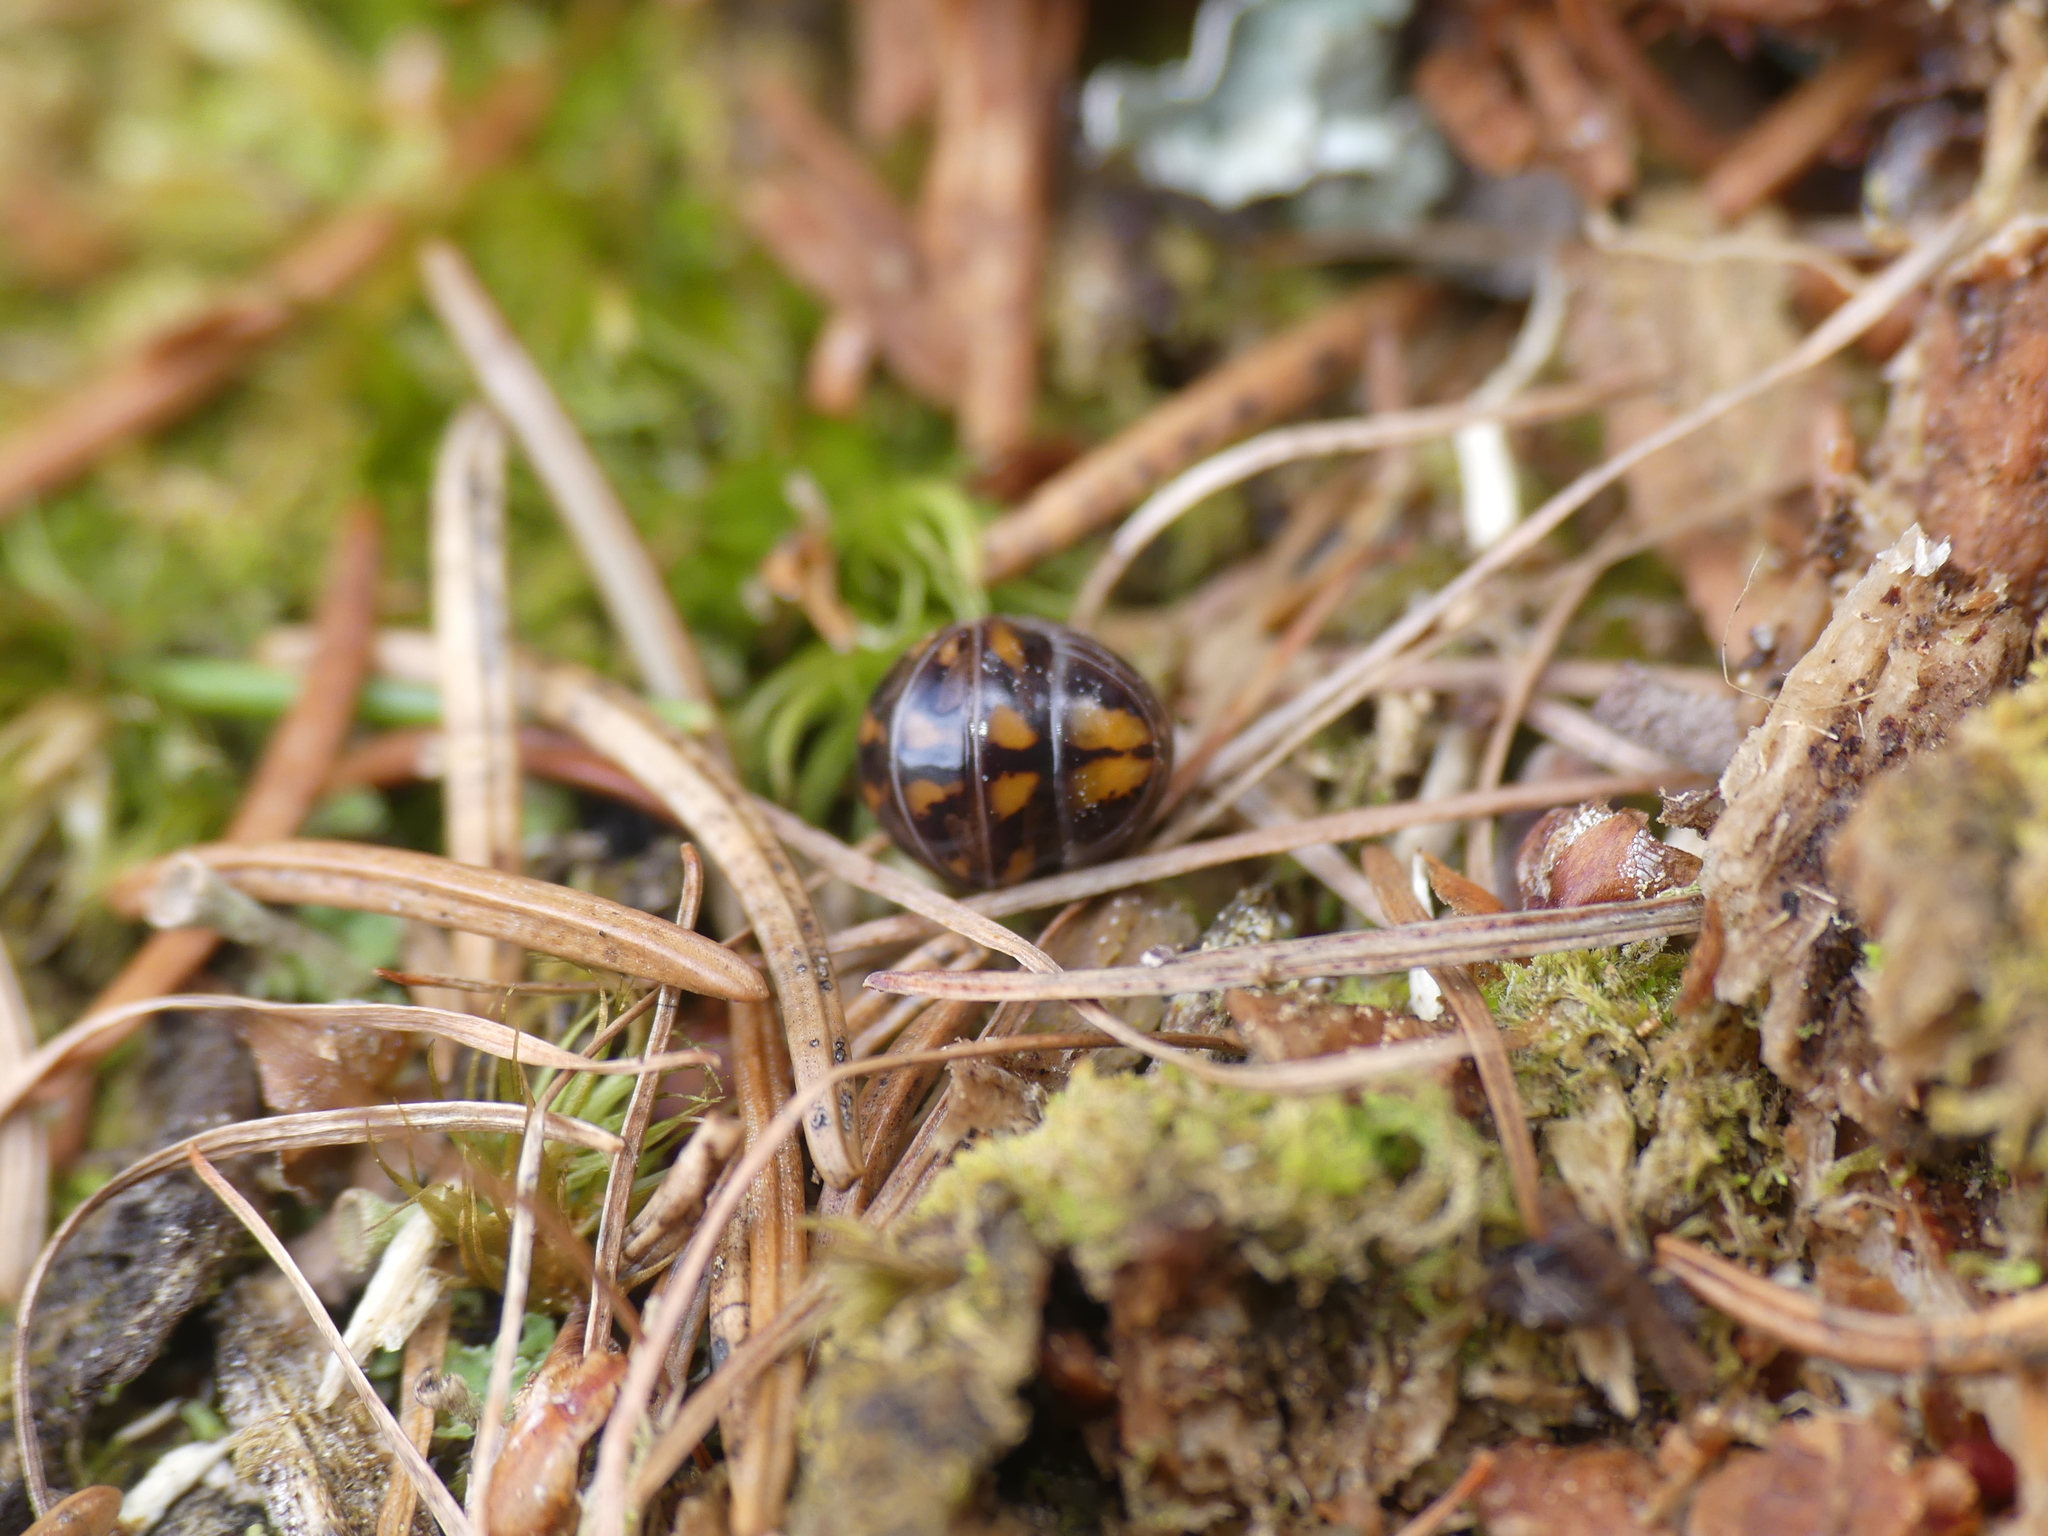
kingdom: Animalia
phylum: Arthropoda
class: Diplopoda
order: Glomerida
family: Glomeridae
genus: Glomeris
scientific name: Glomeris connexa
